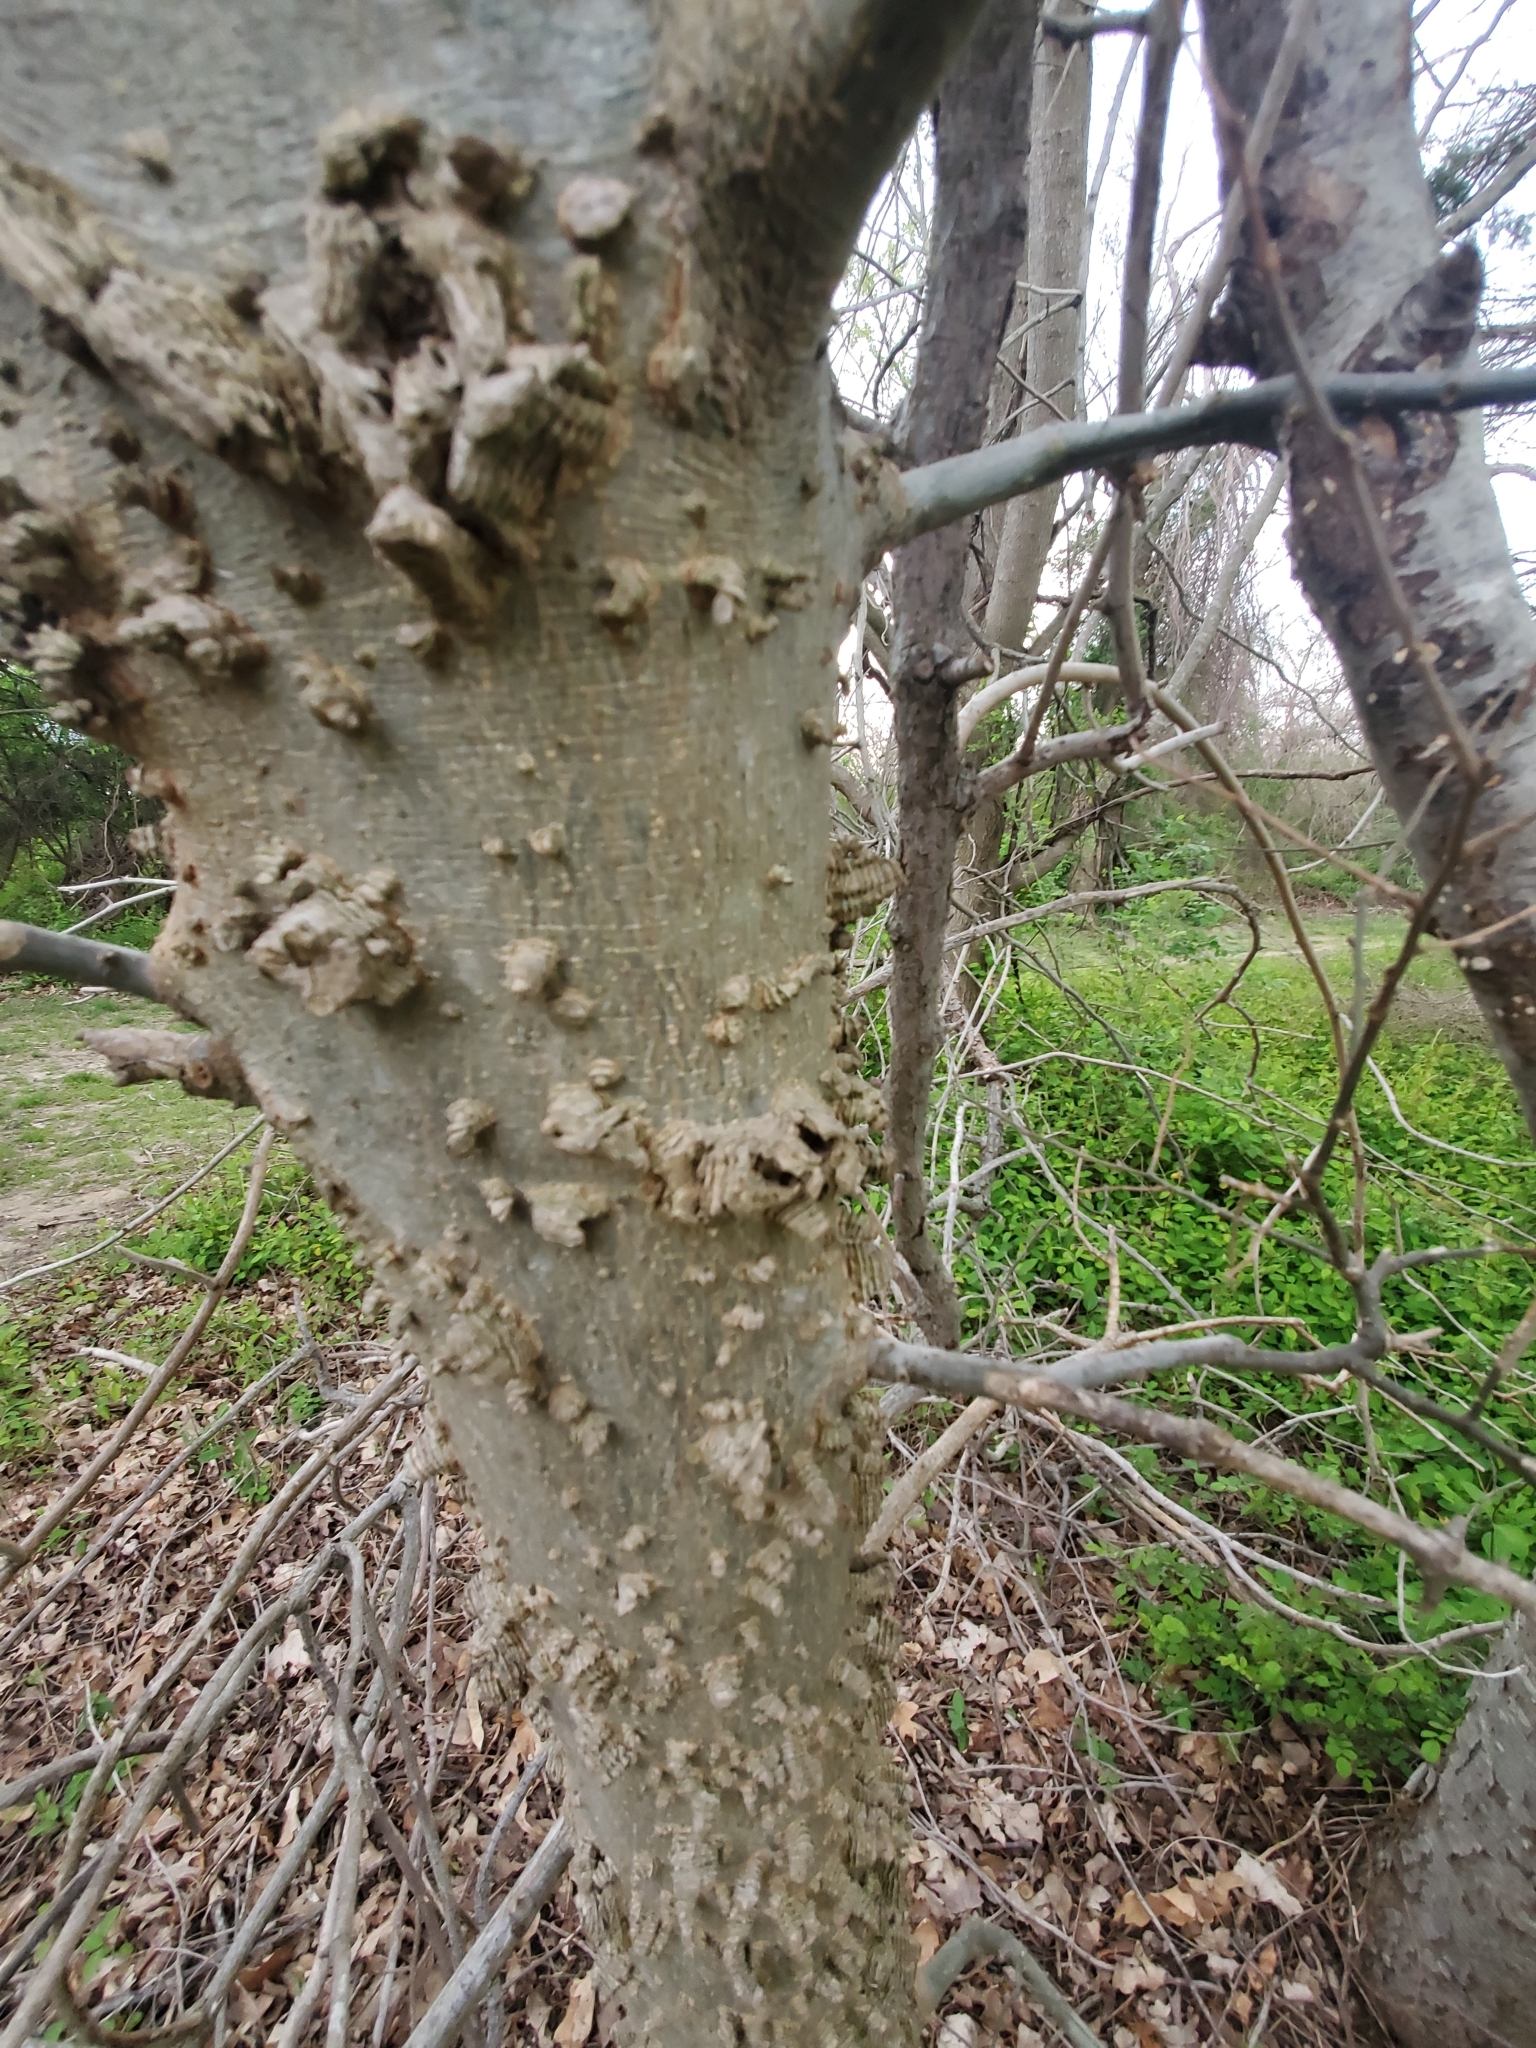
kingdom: Plantae
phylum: Tracheophyta
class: Magnoliopsida
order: Rosales
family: Cannabaceae
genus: Celtis
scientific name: Celtis occidentalis
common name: Common hackberry
